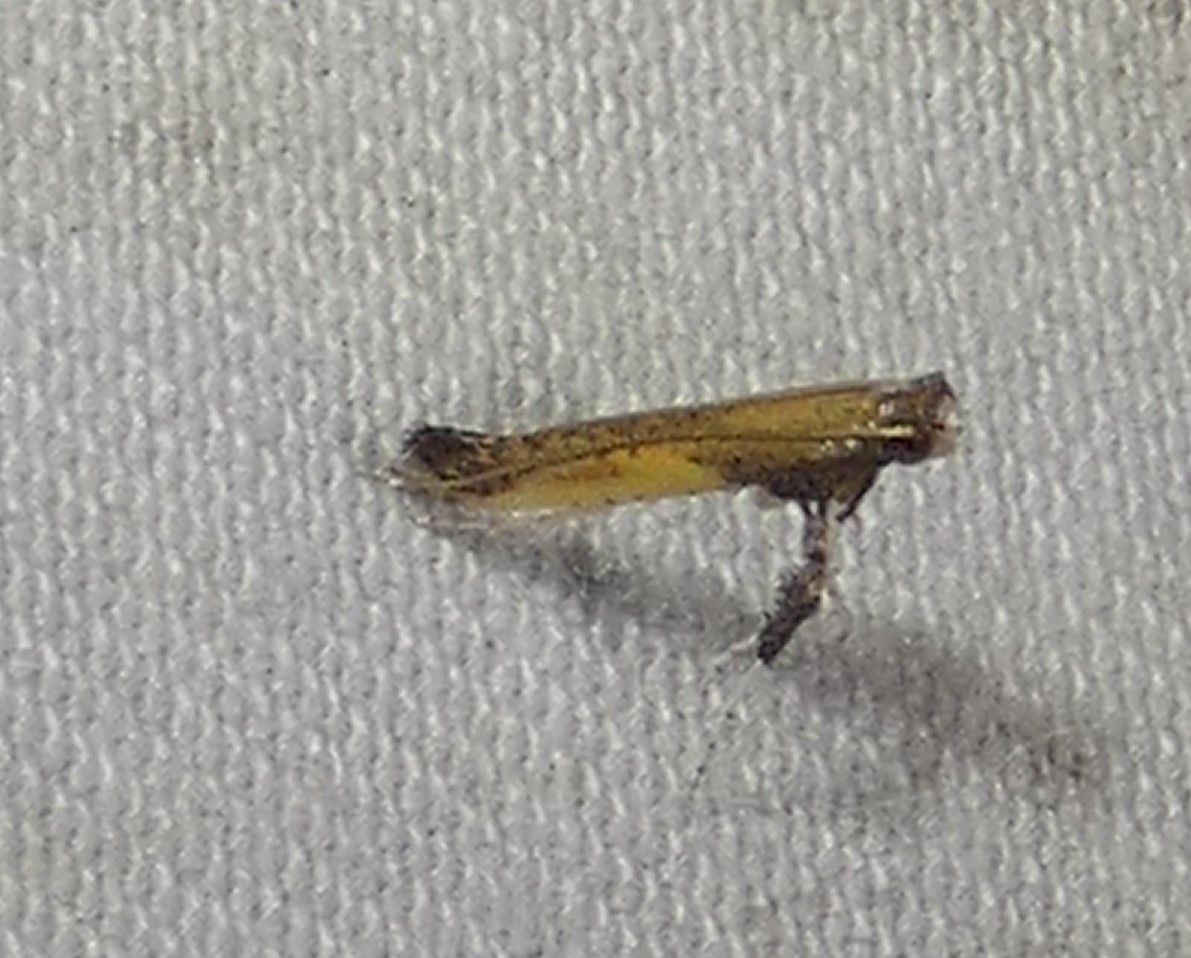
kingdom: Animalia
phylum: Arthropoda
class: Insecta
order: Lepidoptera
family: Gracillariidae
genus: Caloptilia
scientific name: Caloptilia azaleella
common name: Azalea leafminer
